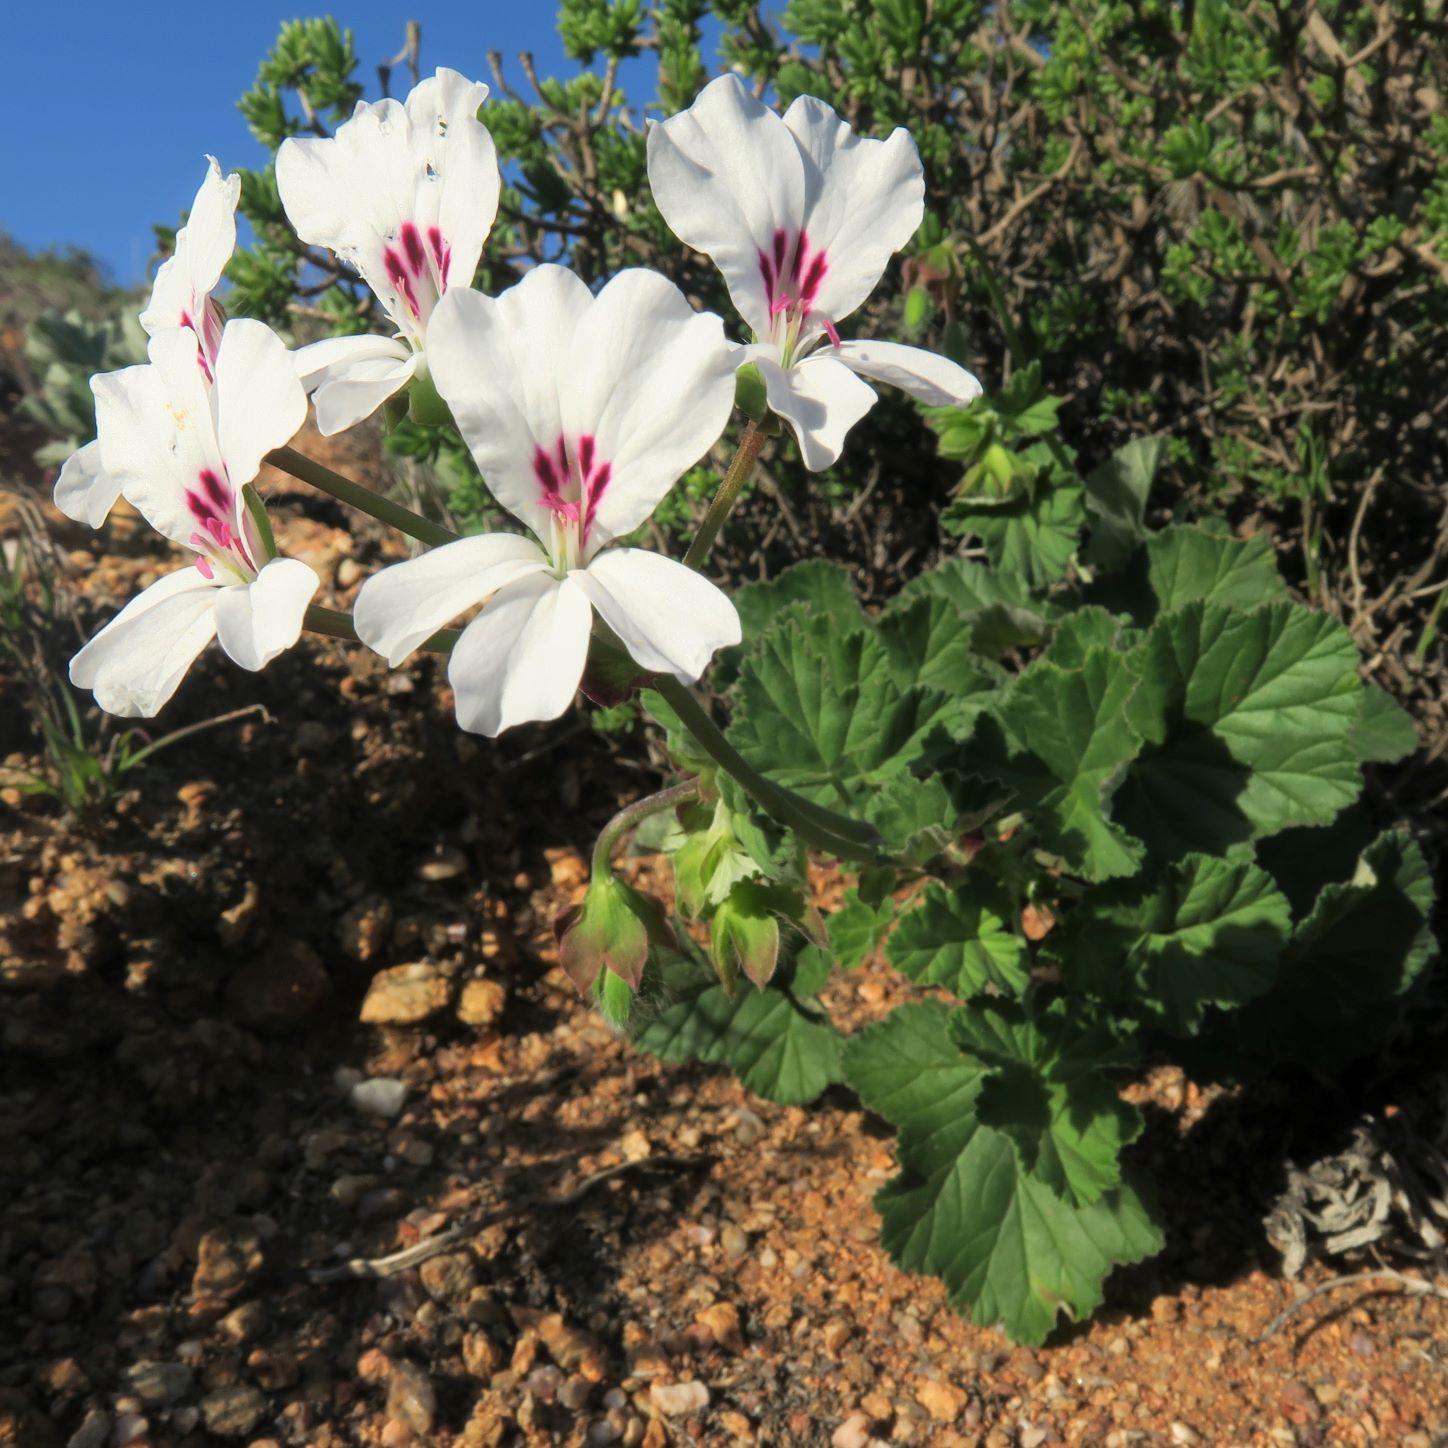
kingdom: Plantae
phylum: Tracheophyta
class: Magnoliopsida
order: Geraniales
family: Geraniaceae
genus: Pelargonium
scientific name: Pelargonium echinatum
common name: Cactus geranium
